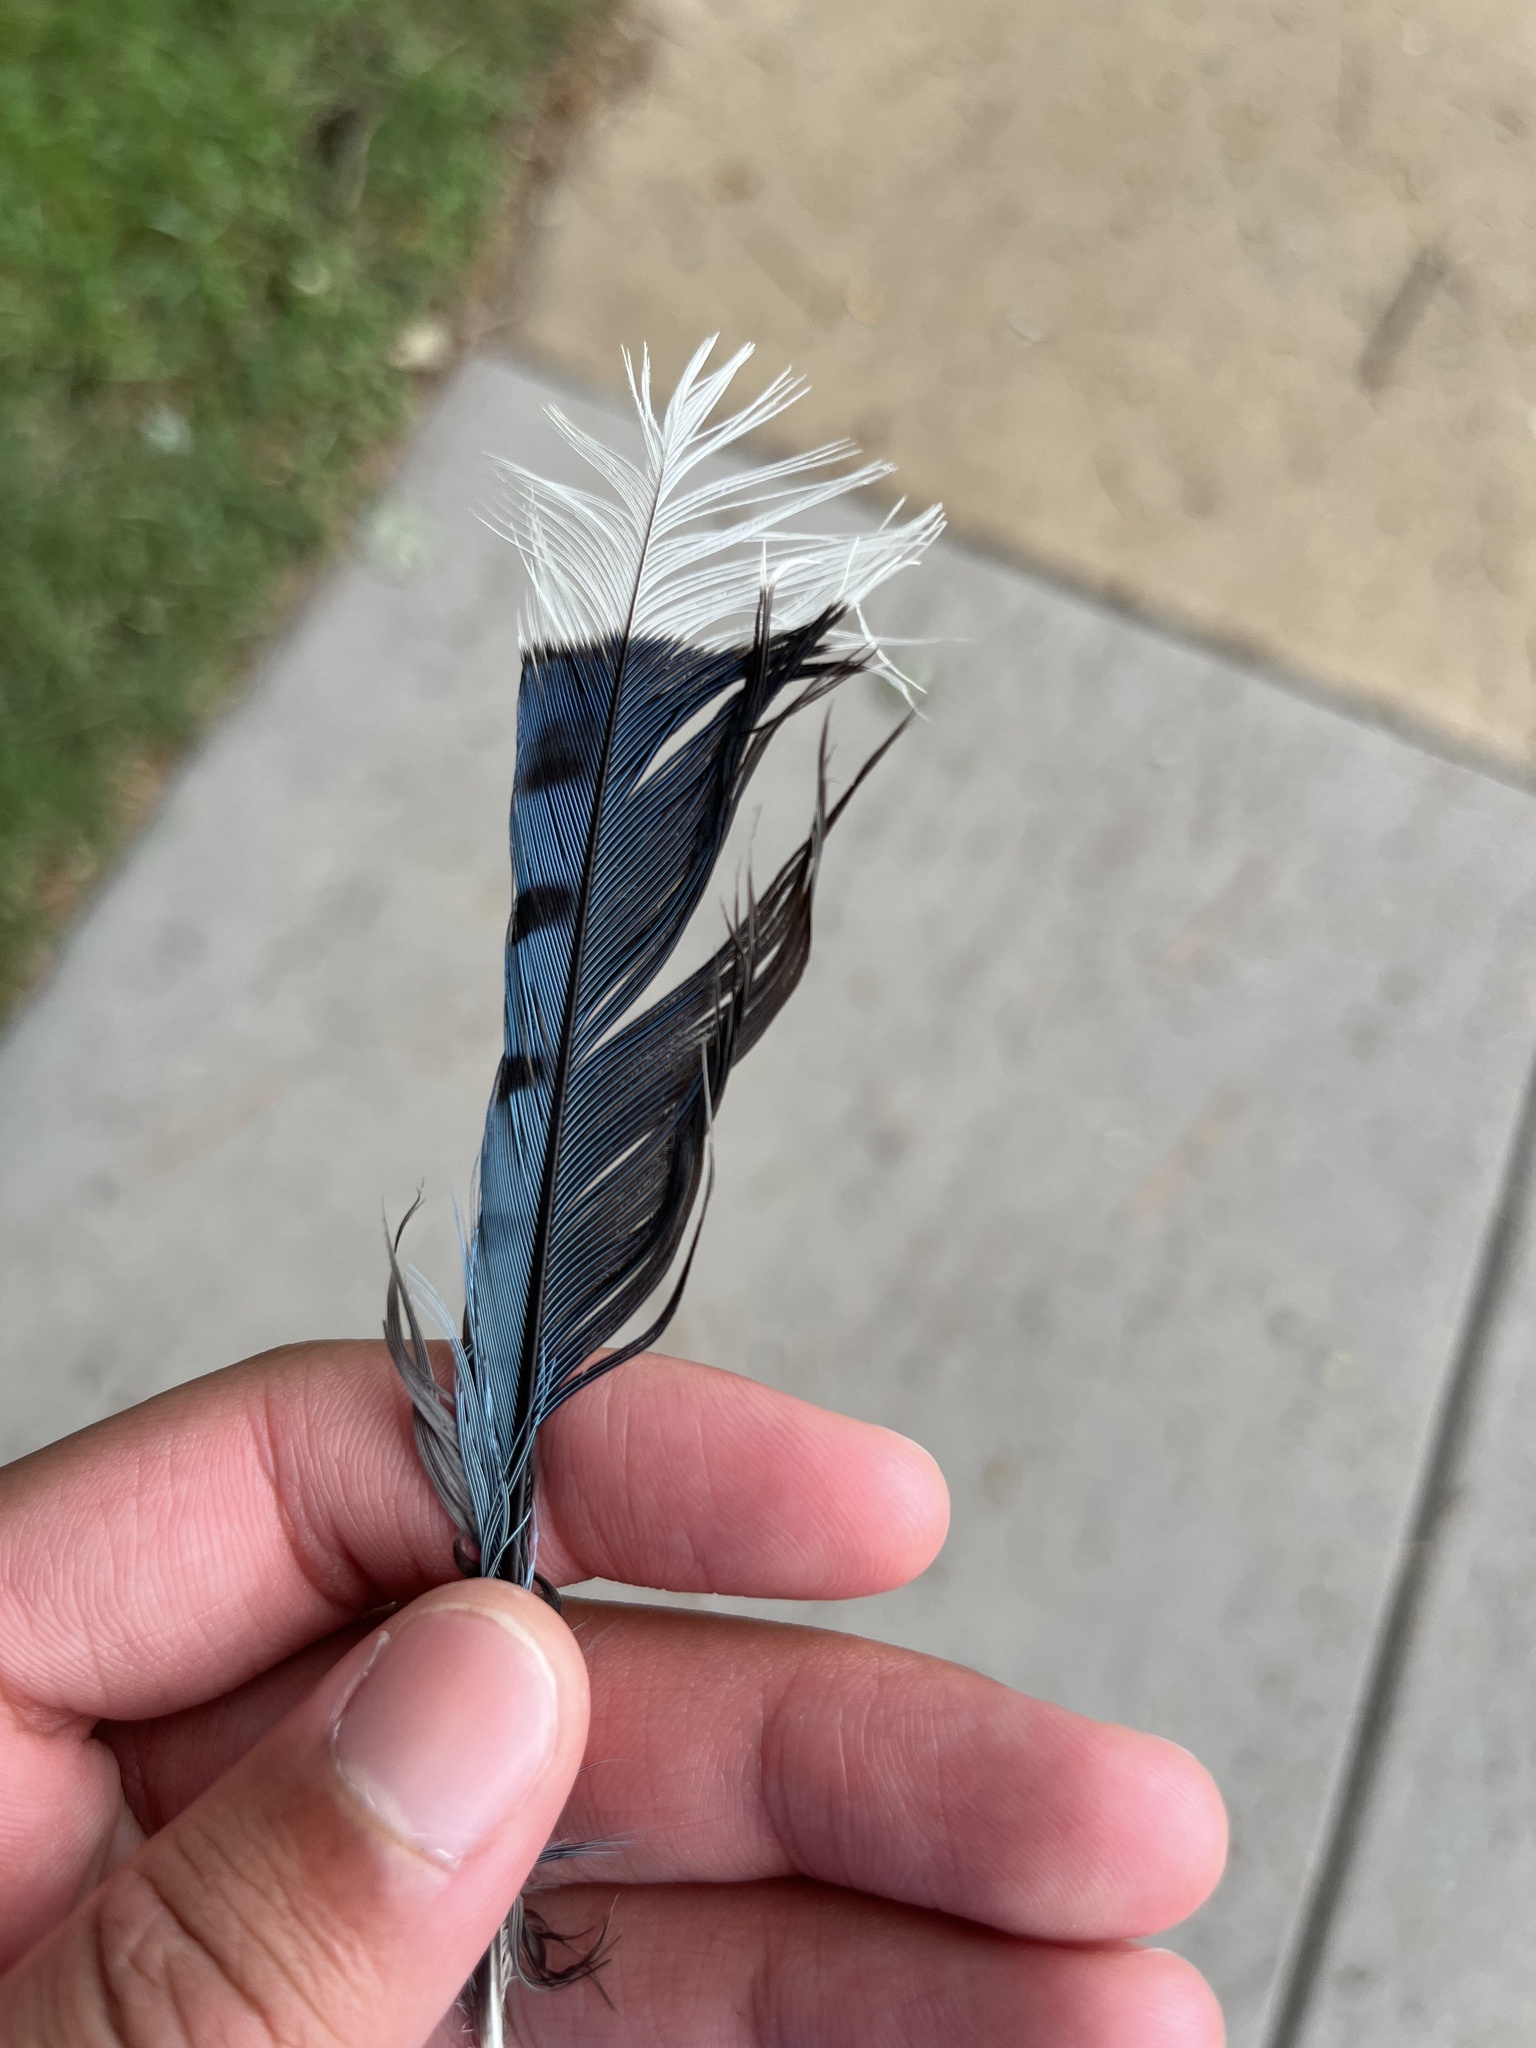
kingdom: Animalia
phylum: Chordata
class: Aves
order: Passeriformes
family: Corvidae
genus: Cyanocitta
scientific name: Cyanocitta cristata
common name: Blue jay
